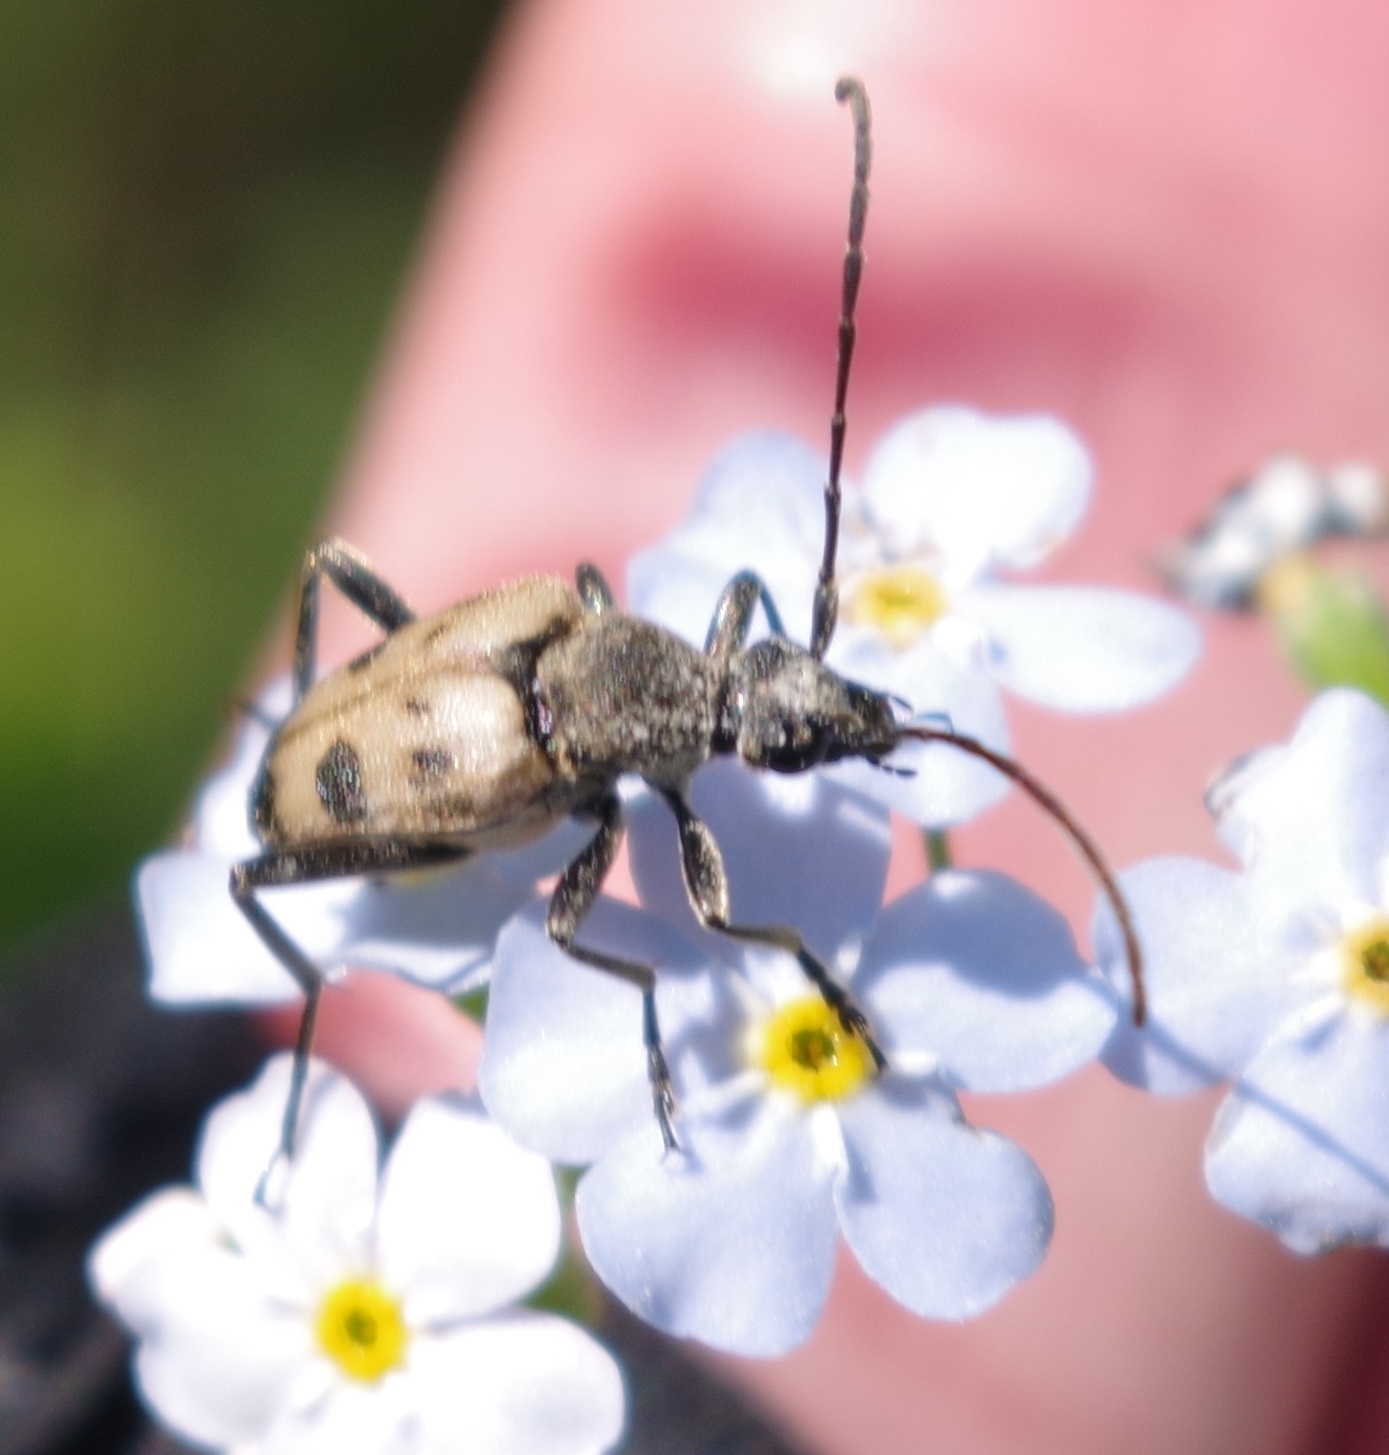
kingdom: Animalia
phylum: Arthropoda
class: Insecta
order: Coleoptera
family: Cerambycidae
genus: Pachytodes
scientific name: Pachytodes cerambyciformis
